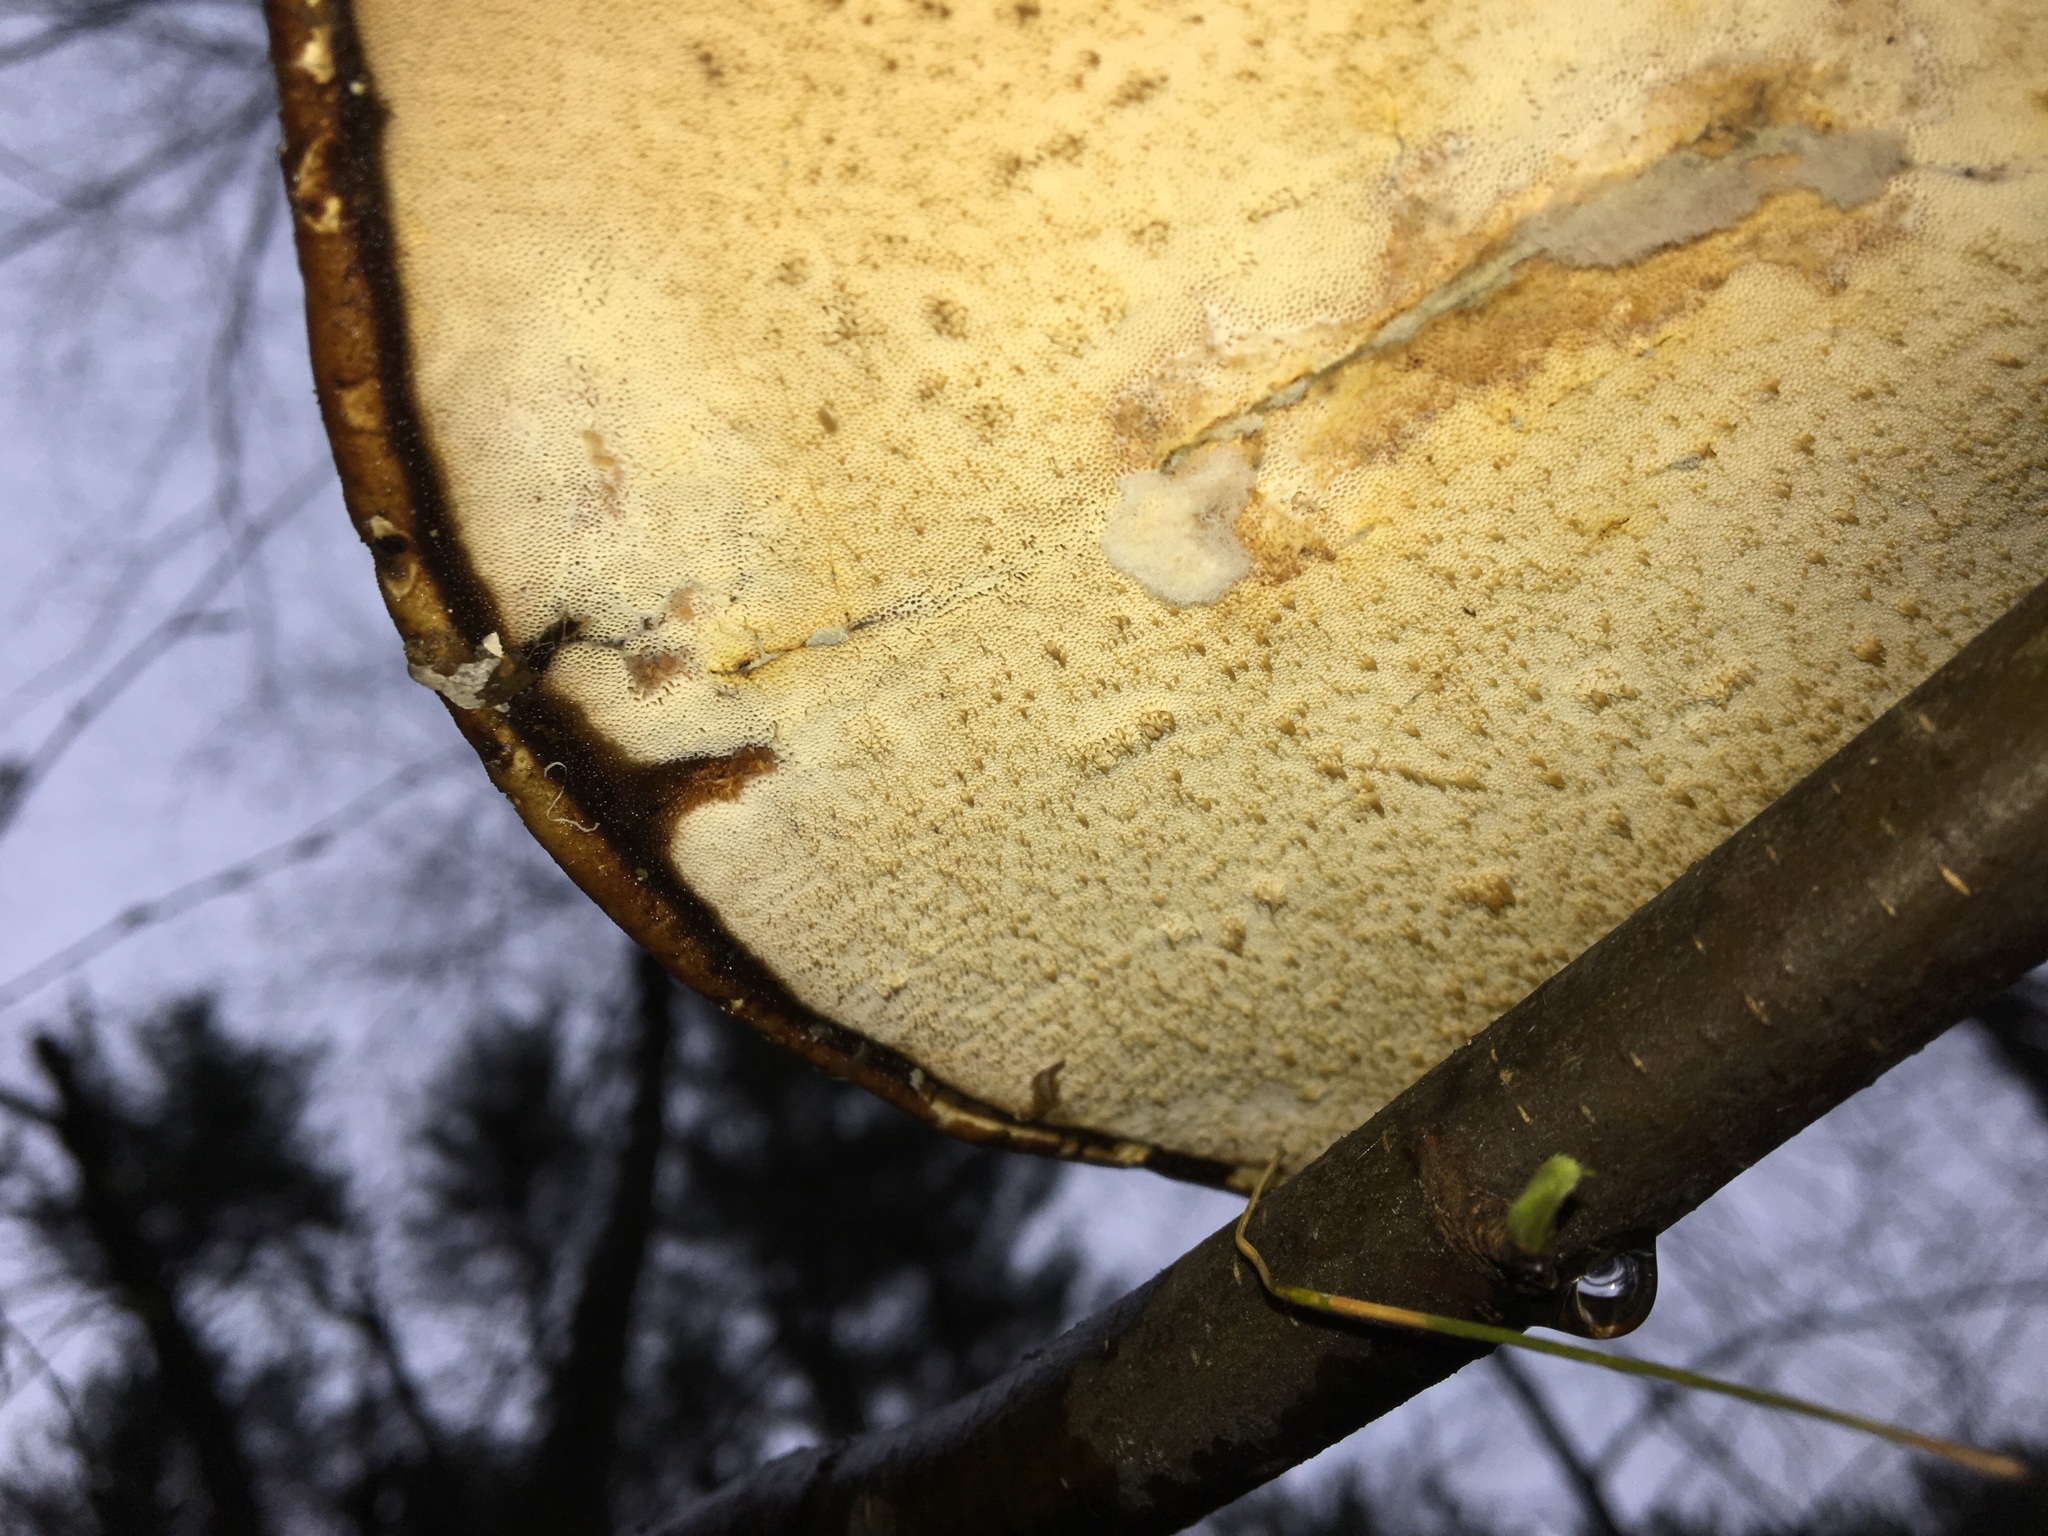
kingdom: Fungi
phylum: Basidiomycota
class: Agaricomycetes
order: Polyporales
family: Fomitopsidaceae
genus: Fomitopsis
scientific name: Fomitopsis betulina
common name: Birch polypore
